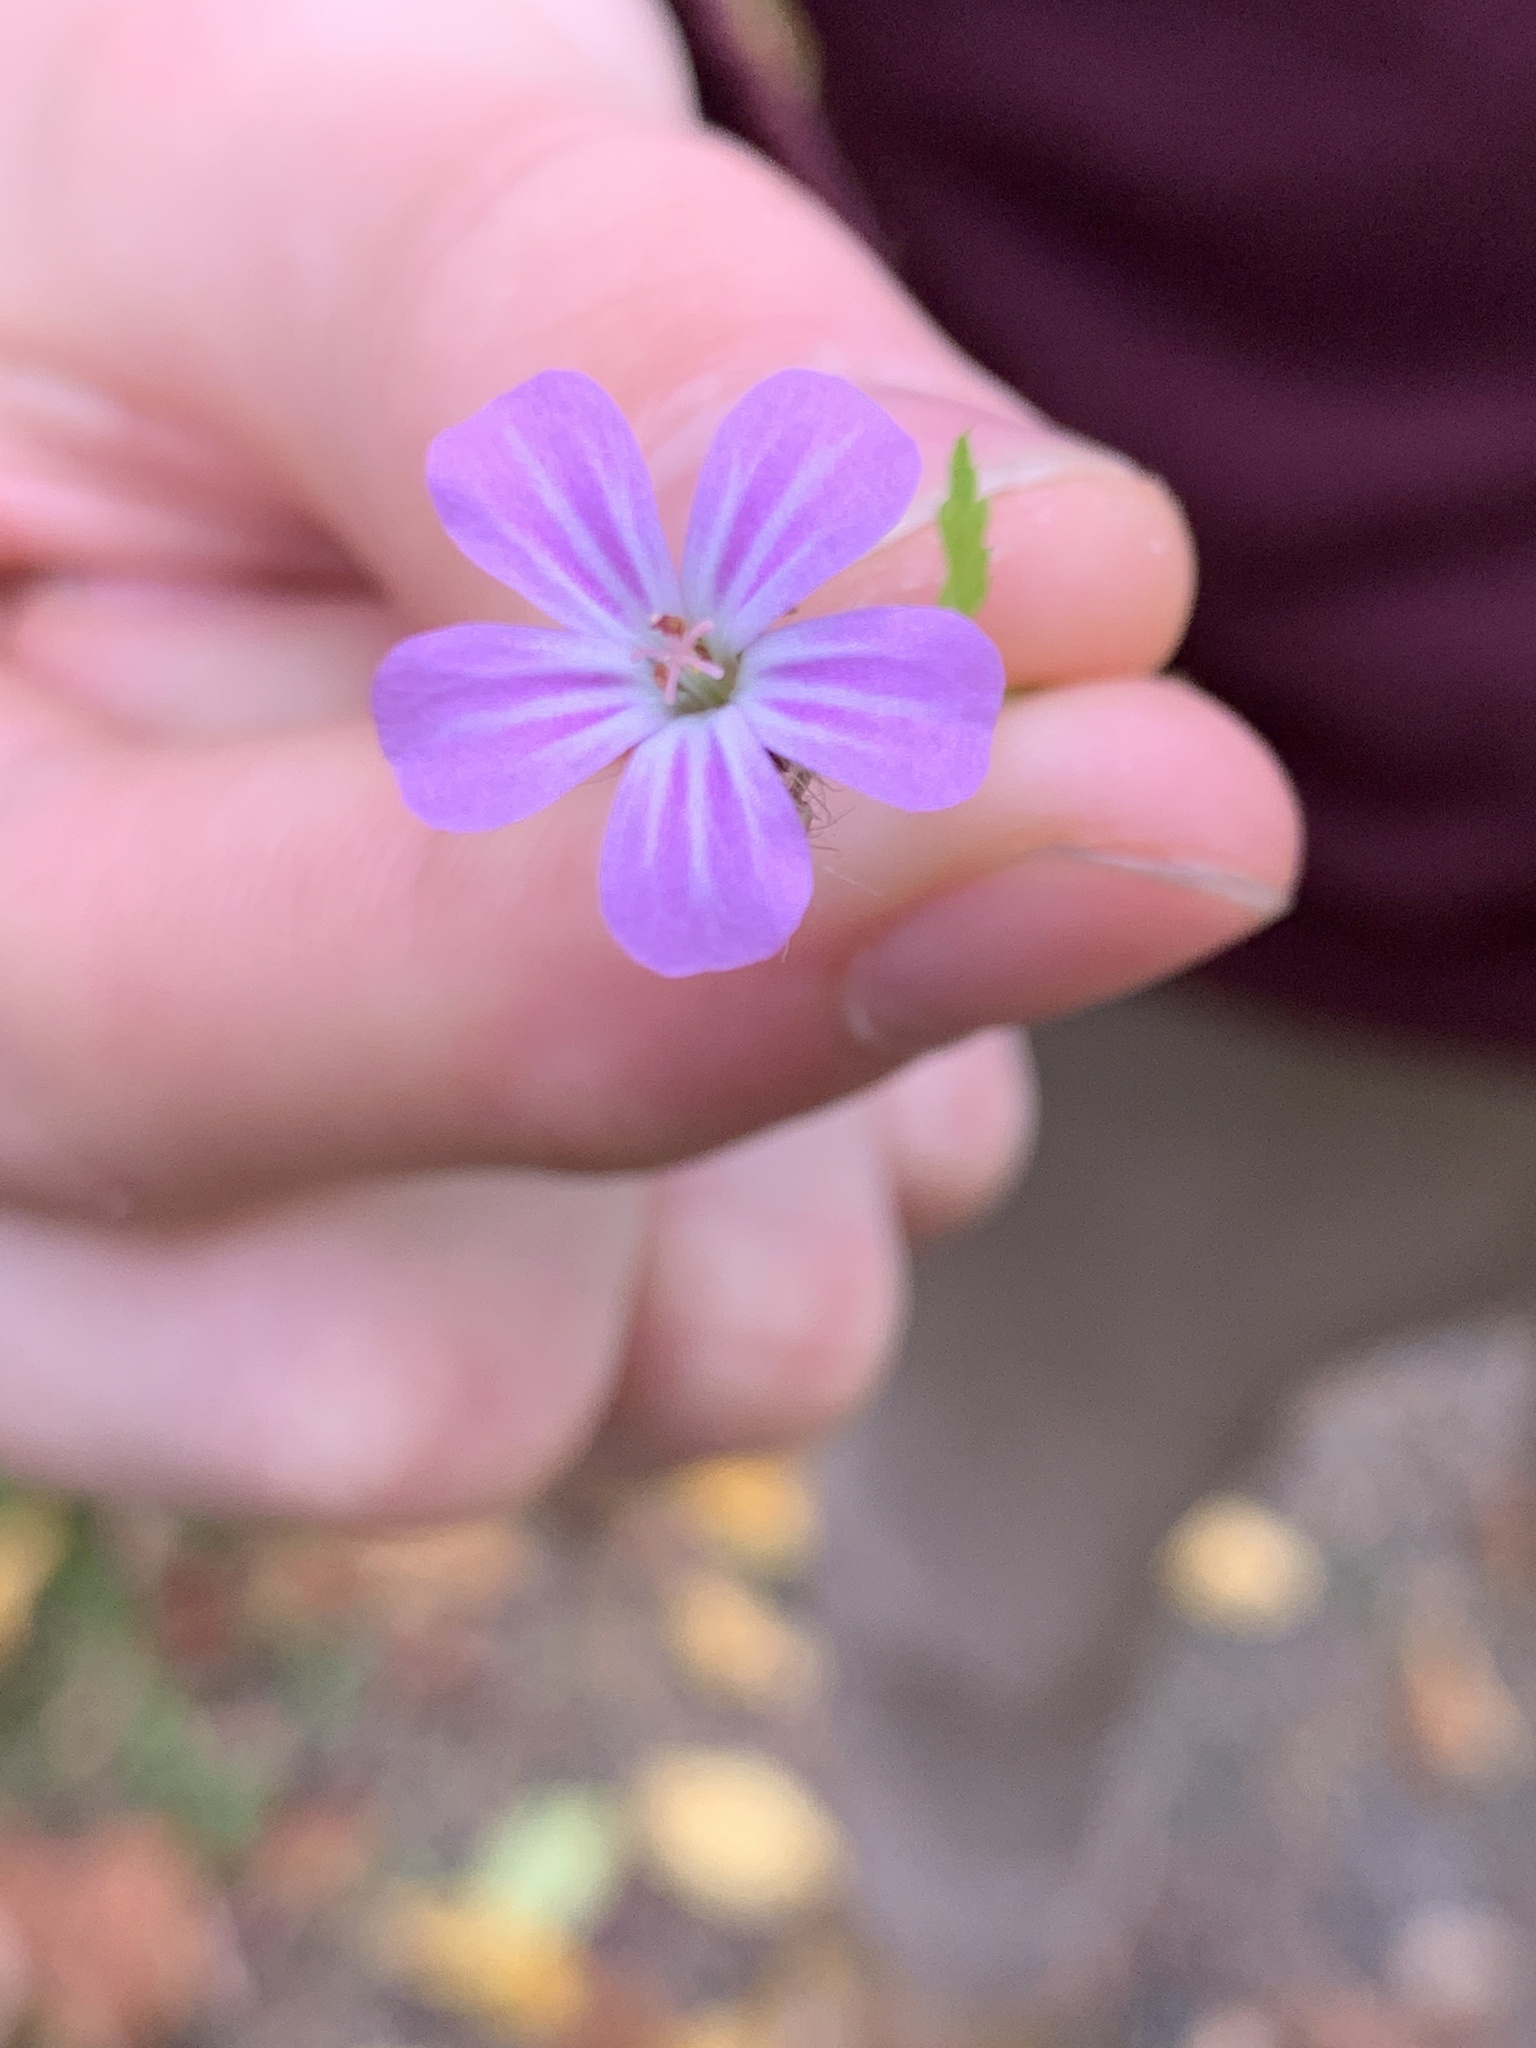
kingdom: Plantae
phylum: Tracheophyta
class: Magnoliopsida
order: Geraniales
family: Geraniaceae
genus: Geranium
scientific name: Geranium robertianum
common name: Herb-robert
